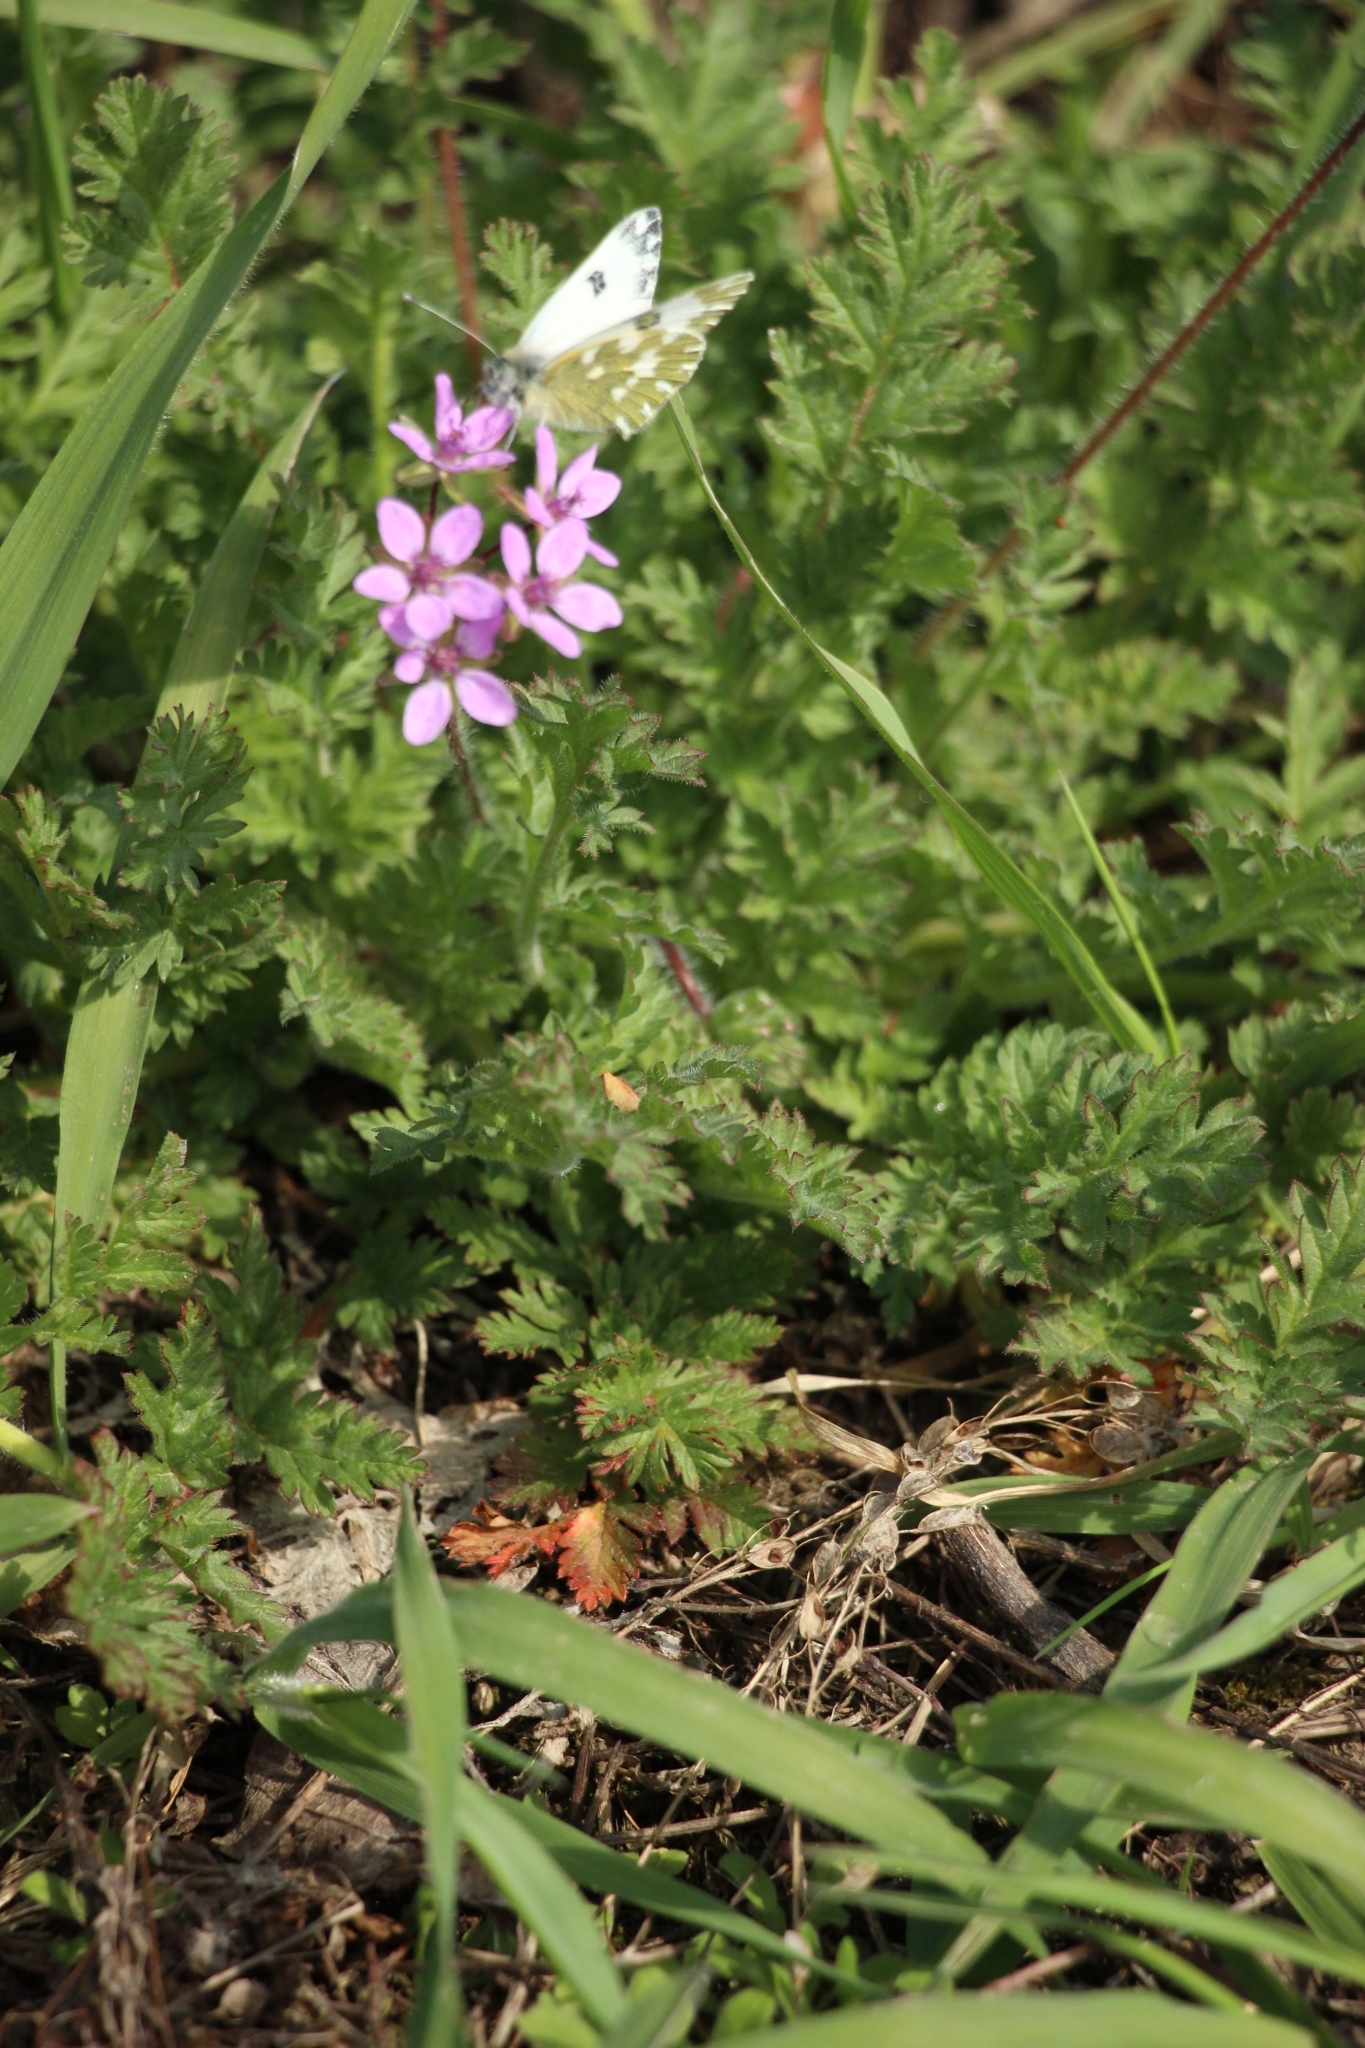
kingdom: Plantae
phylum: Tracheophyta
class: Magnoliopsida
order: Geraniales
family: Geraniaceae
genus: Erodium
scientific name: Erodium cicutarium
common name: Common stork's-bill
